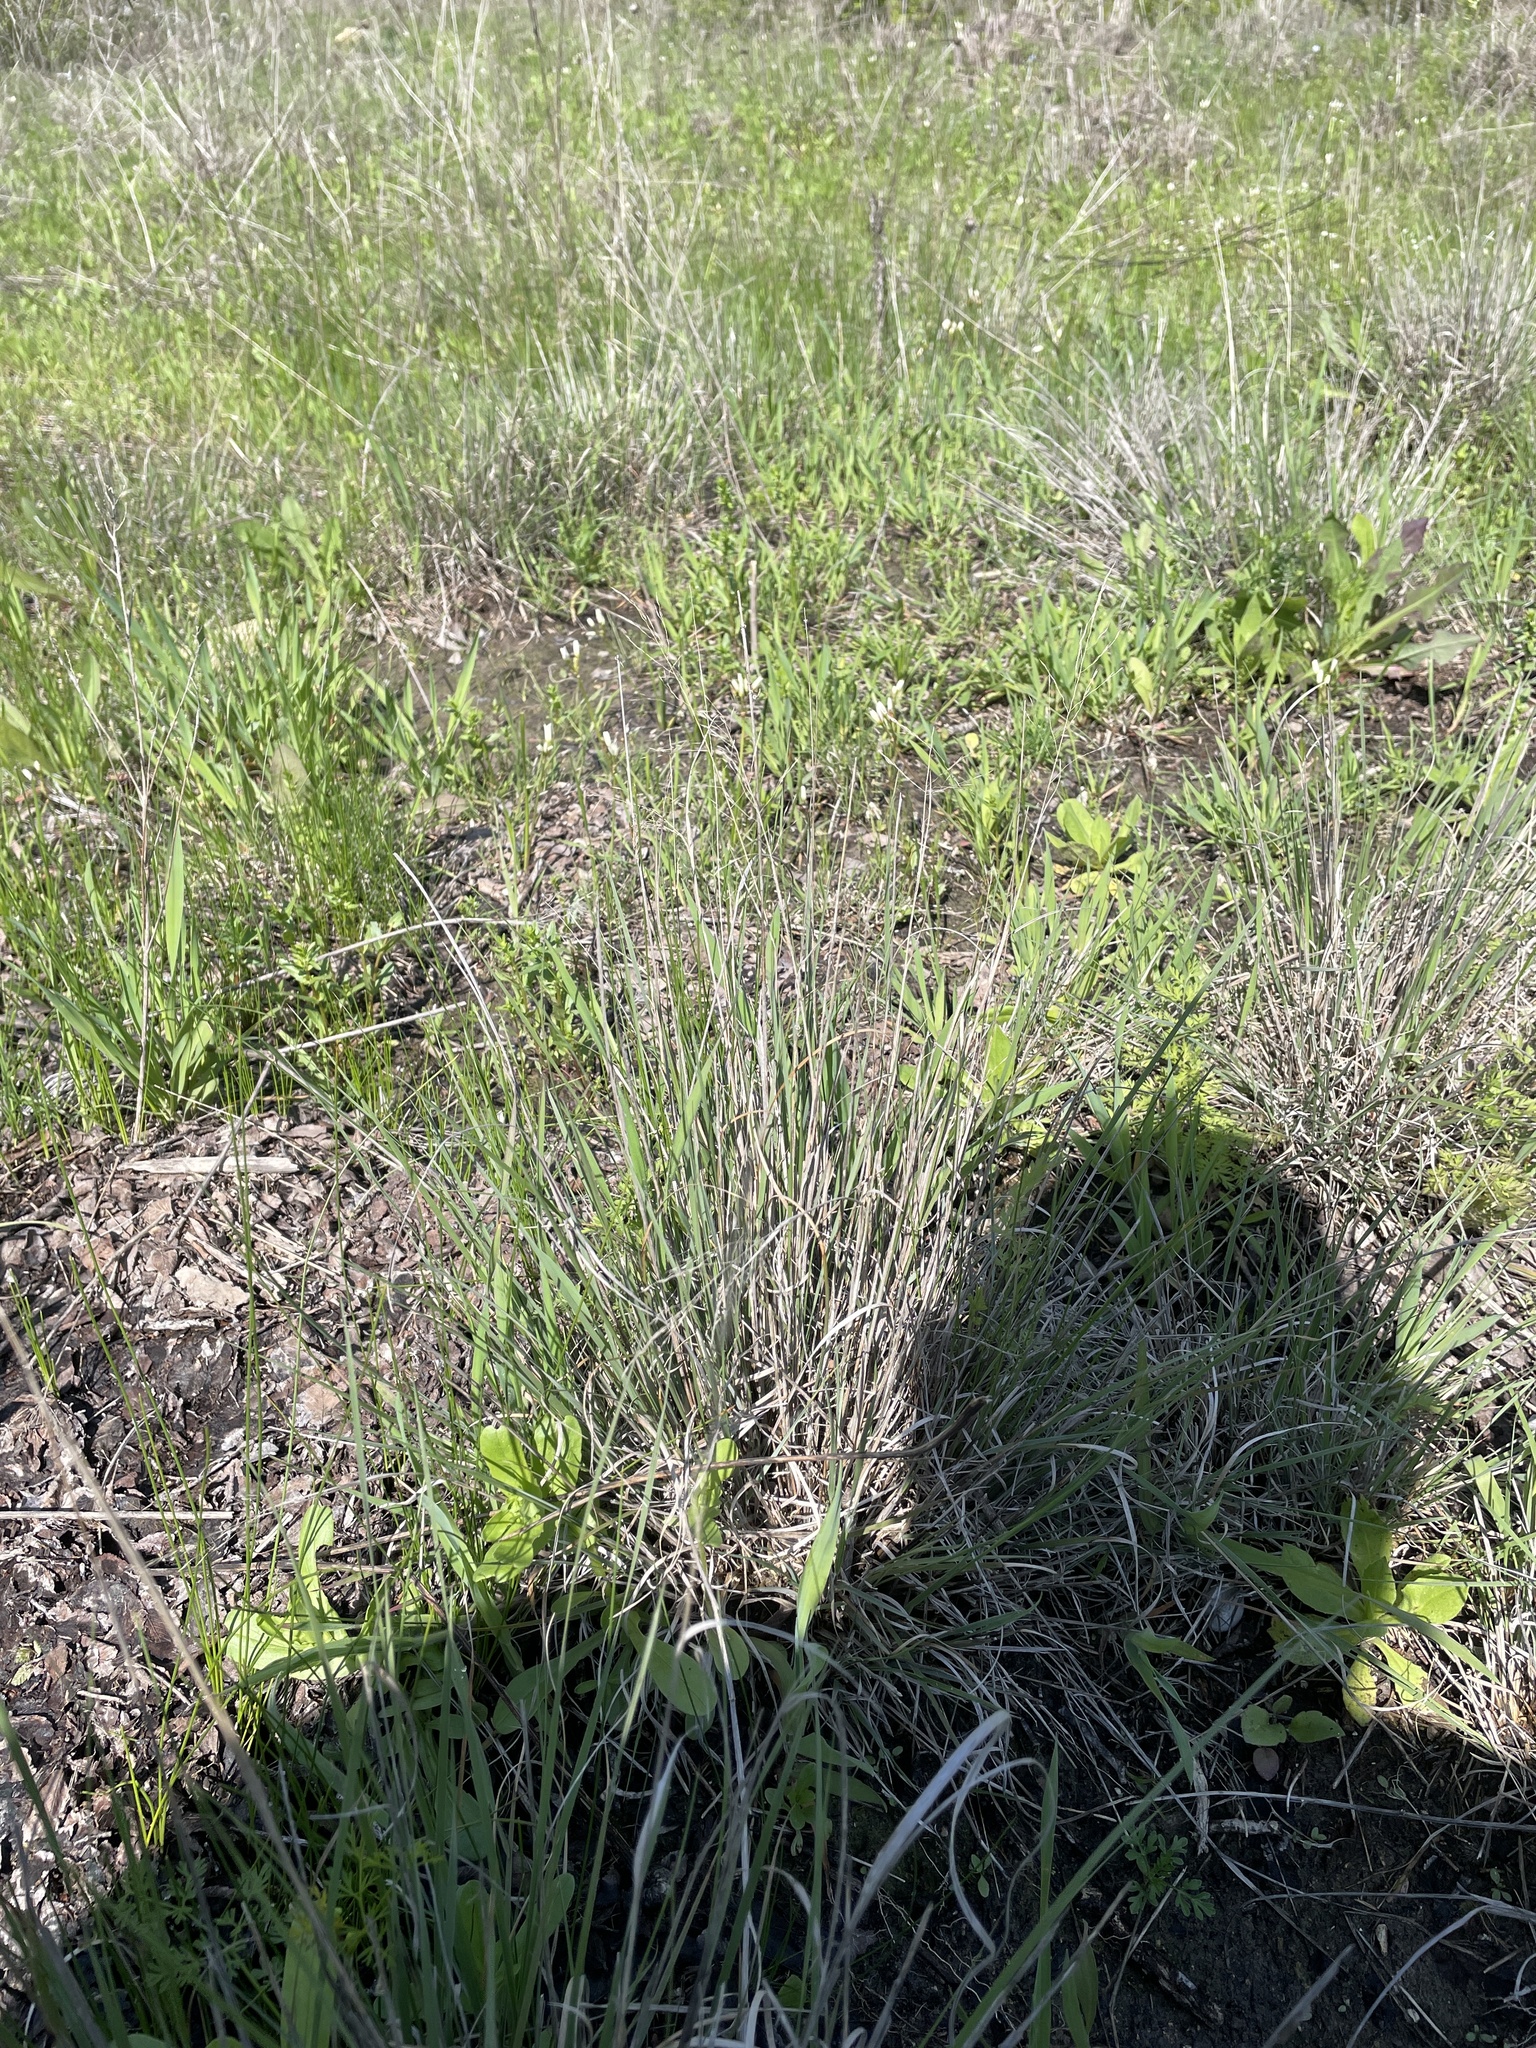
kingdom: Plantae
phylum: Tracheophyta
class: Liliopsida
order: Poales
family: Poaceae
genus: Muhlenbergia
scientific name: Muhlenbergia reverchonii
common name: Seep muhly
